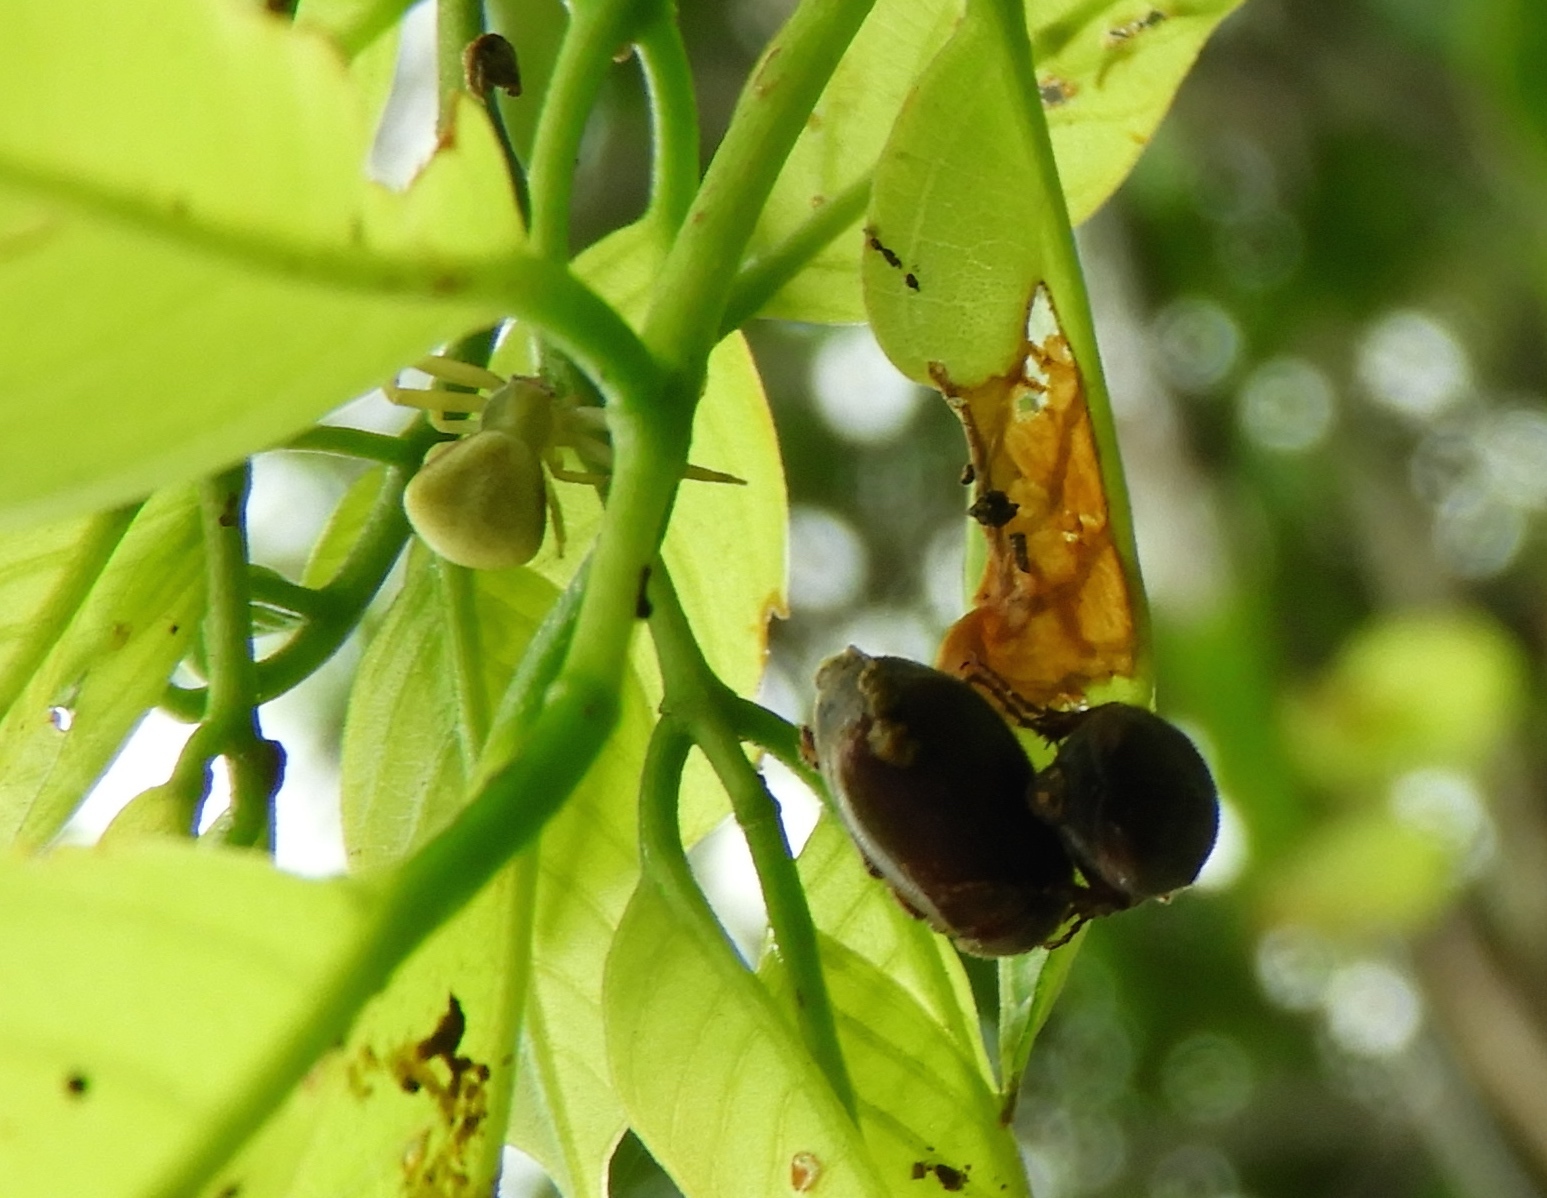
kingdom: Animalia
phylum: Arthropoda
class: Arachnida
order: Araneae
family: Thomisidae
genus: Misumenoides
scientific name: Misumenoides
